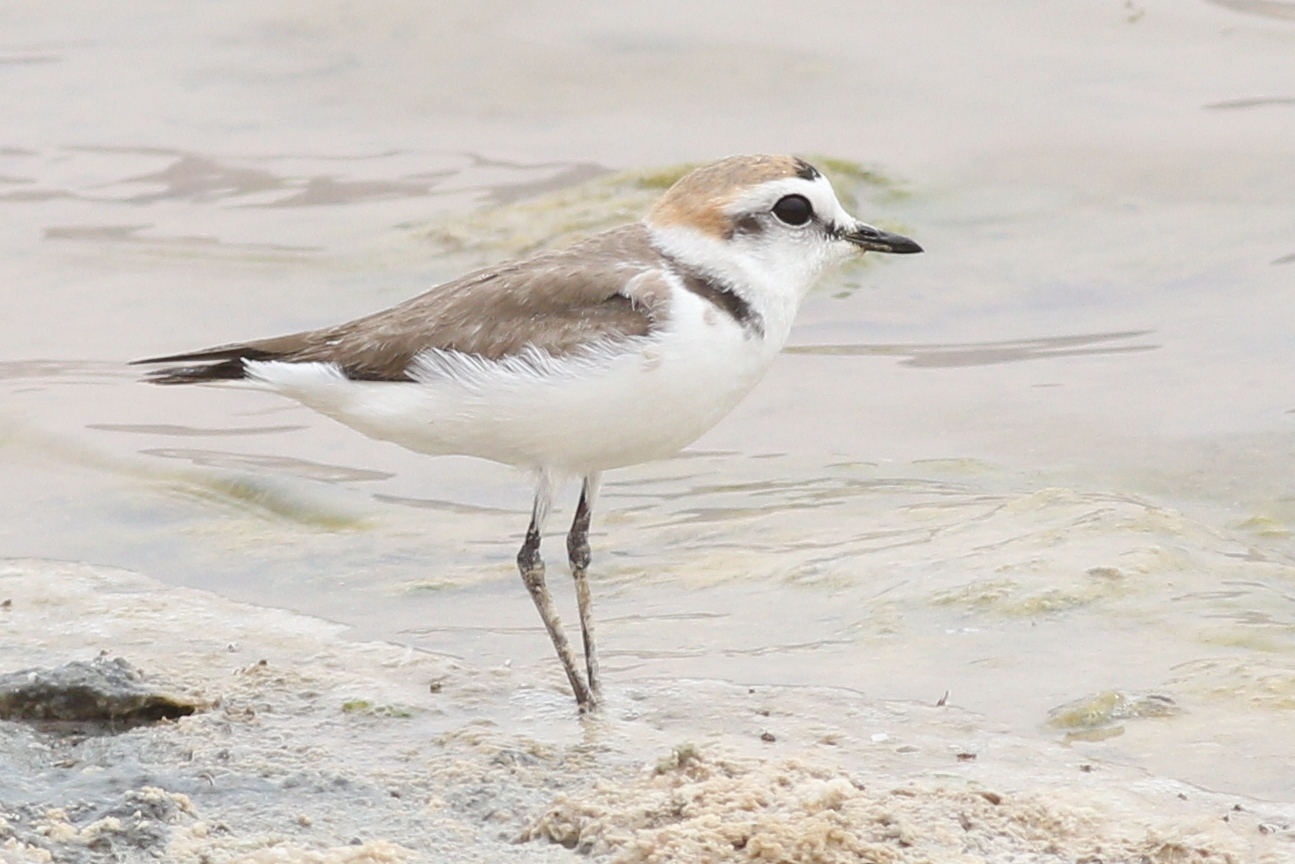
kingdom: Animalia
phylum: Chordata
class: Aves
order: Charadriiformes
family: Charadriidae
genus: Charadrius
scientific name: Charadrius alexandrinus
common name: Kentish plover
